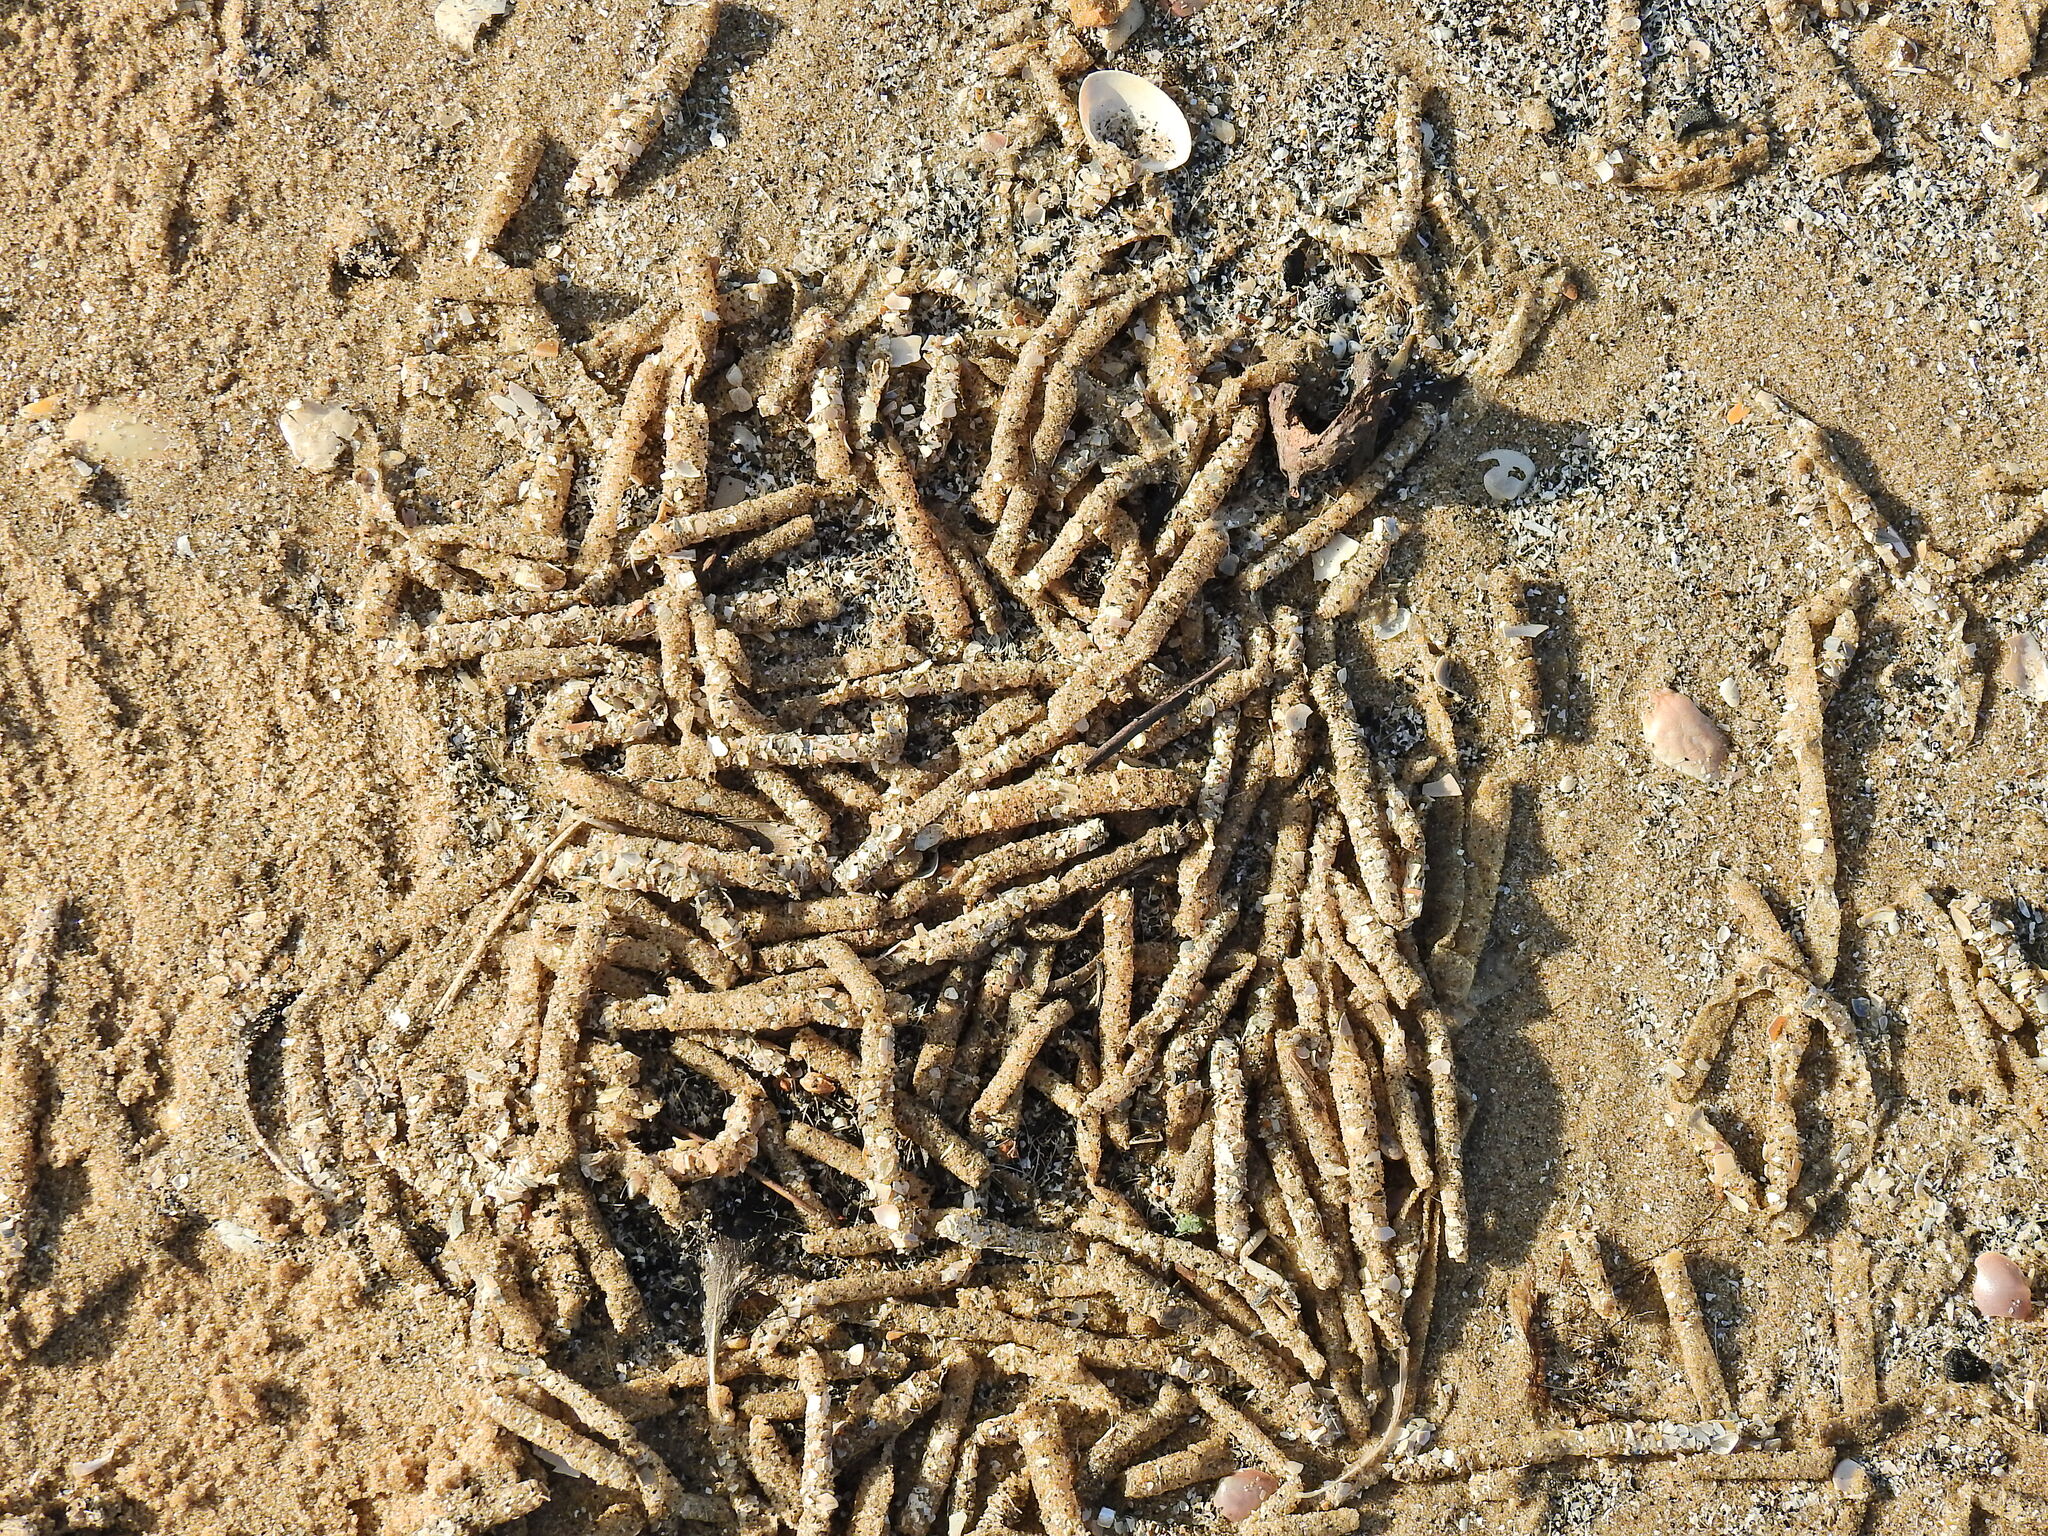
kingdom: Animalia
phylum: Annelida
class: Polychaeta
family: Terebellidae
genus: Lanice
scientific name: Lanice conchilega
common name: Sand mason
